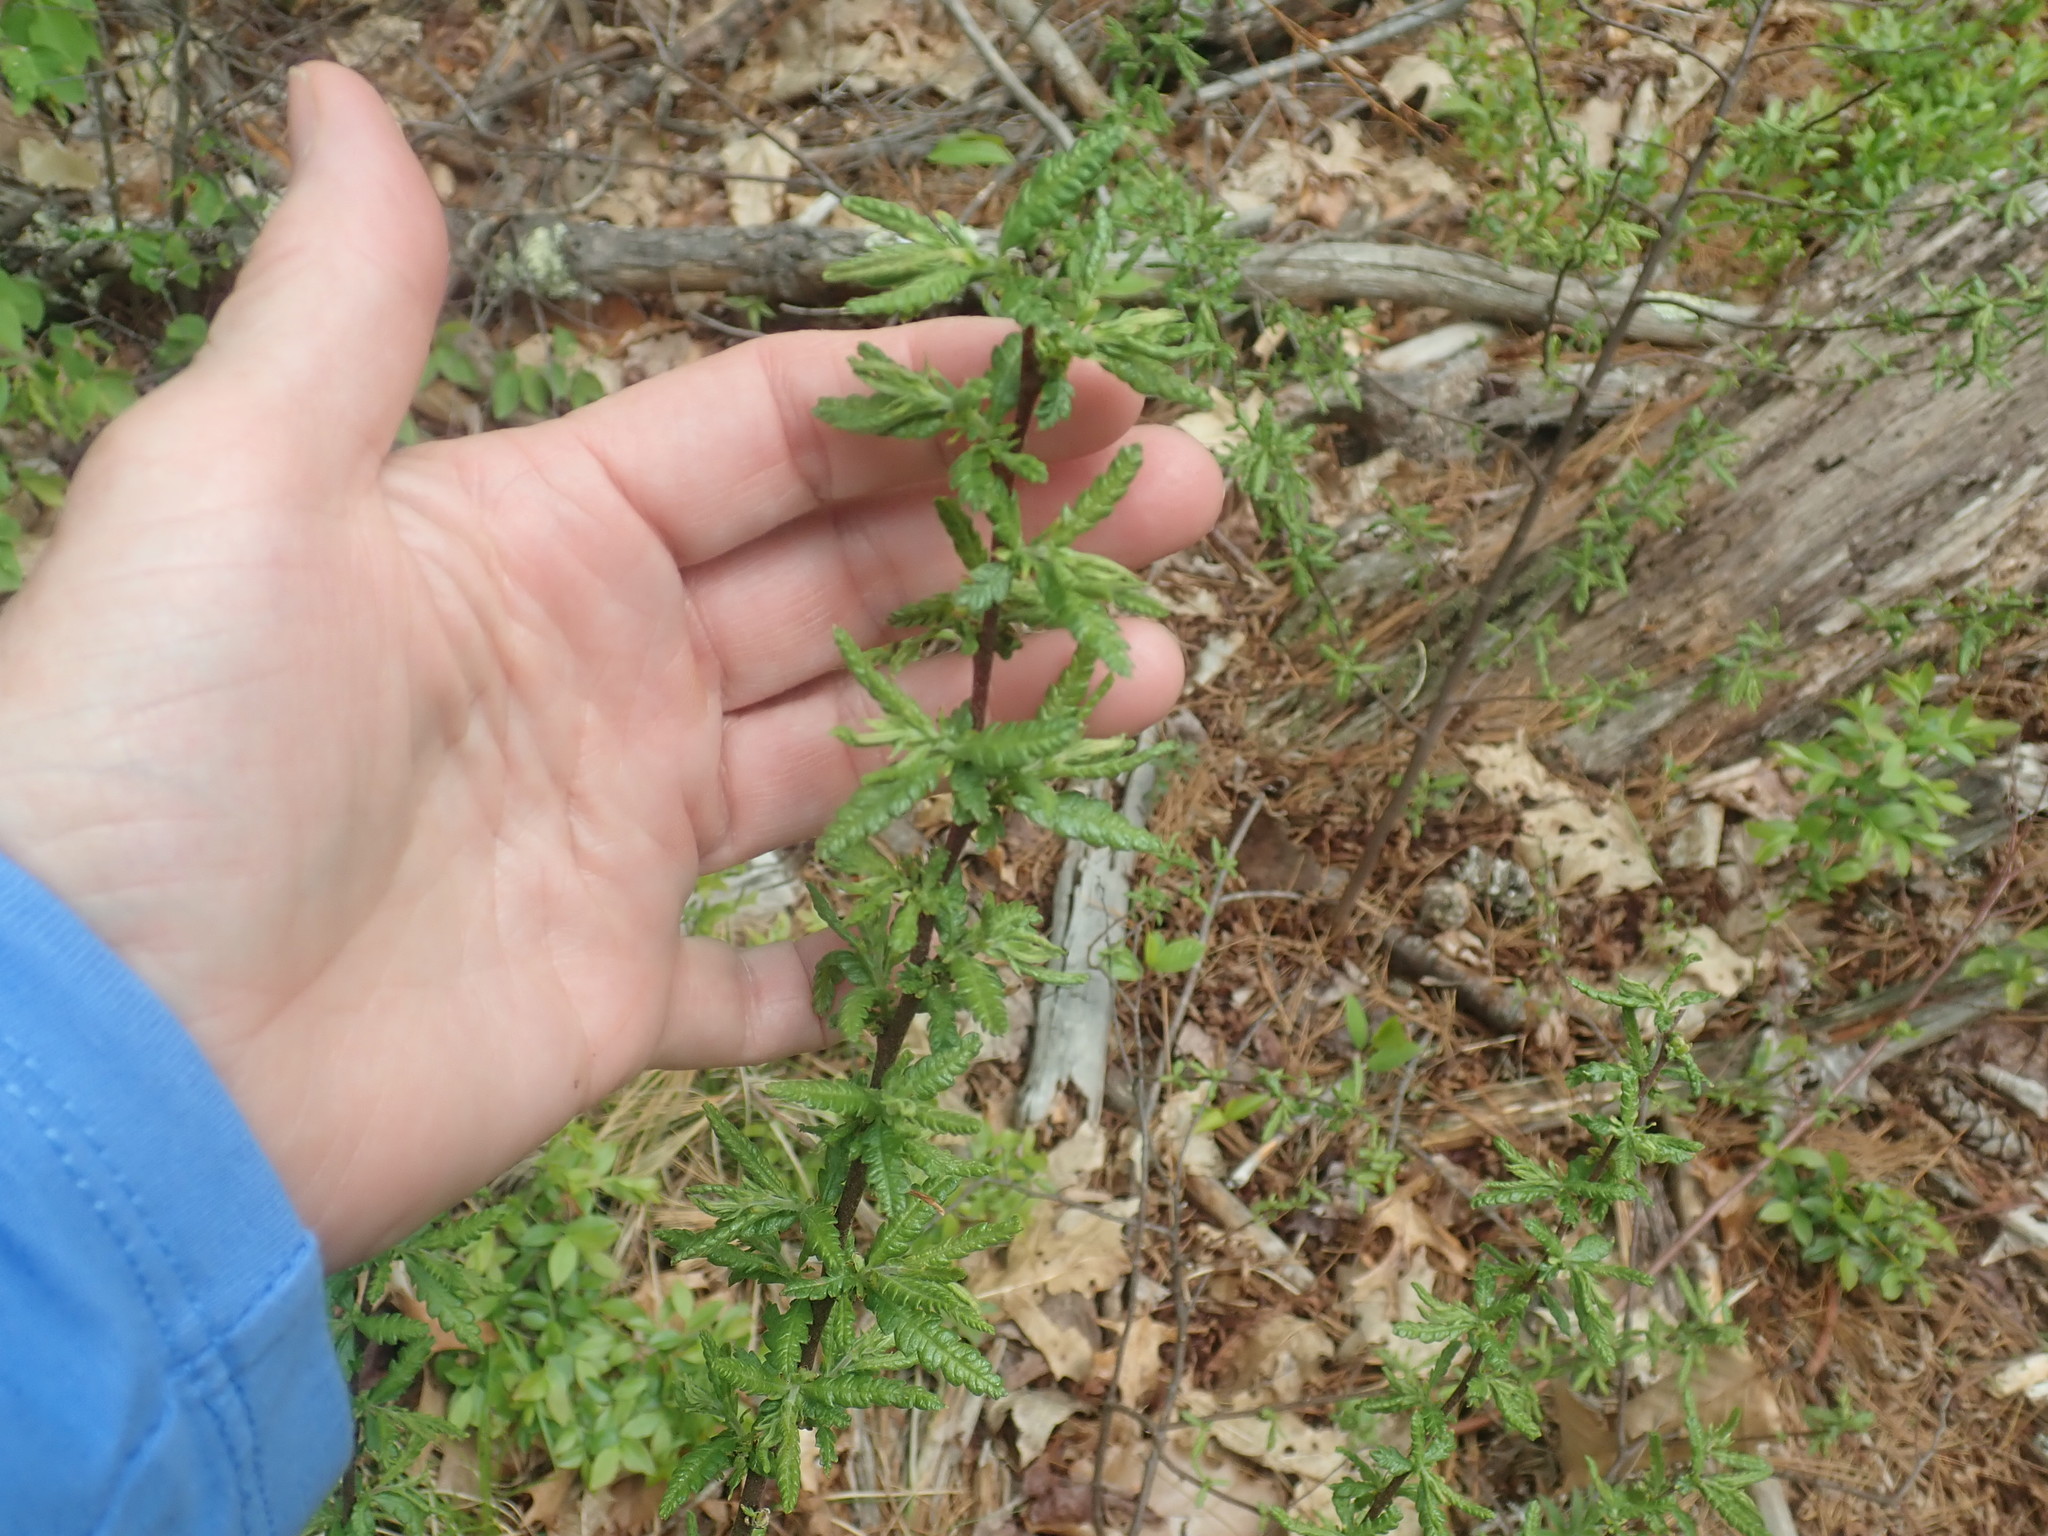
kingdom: Plantae
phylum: Tracheophyta
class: Magnoliopsida
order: Fagales
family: Myricaceae
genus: Comptonia
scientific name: Comptonia peregrina
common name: Sweet-fern
